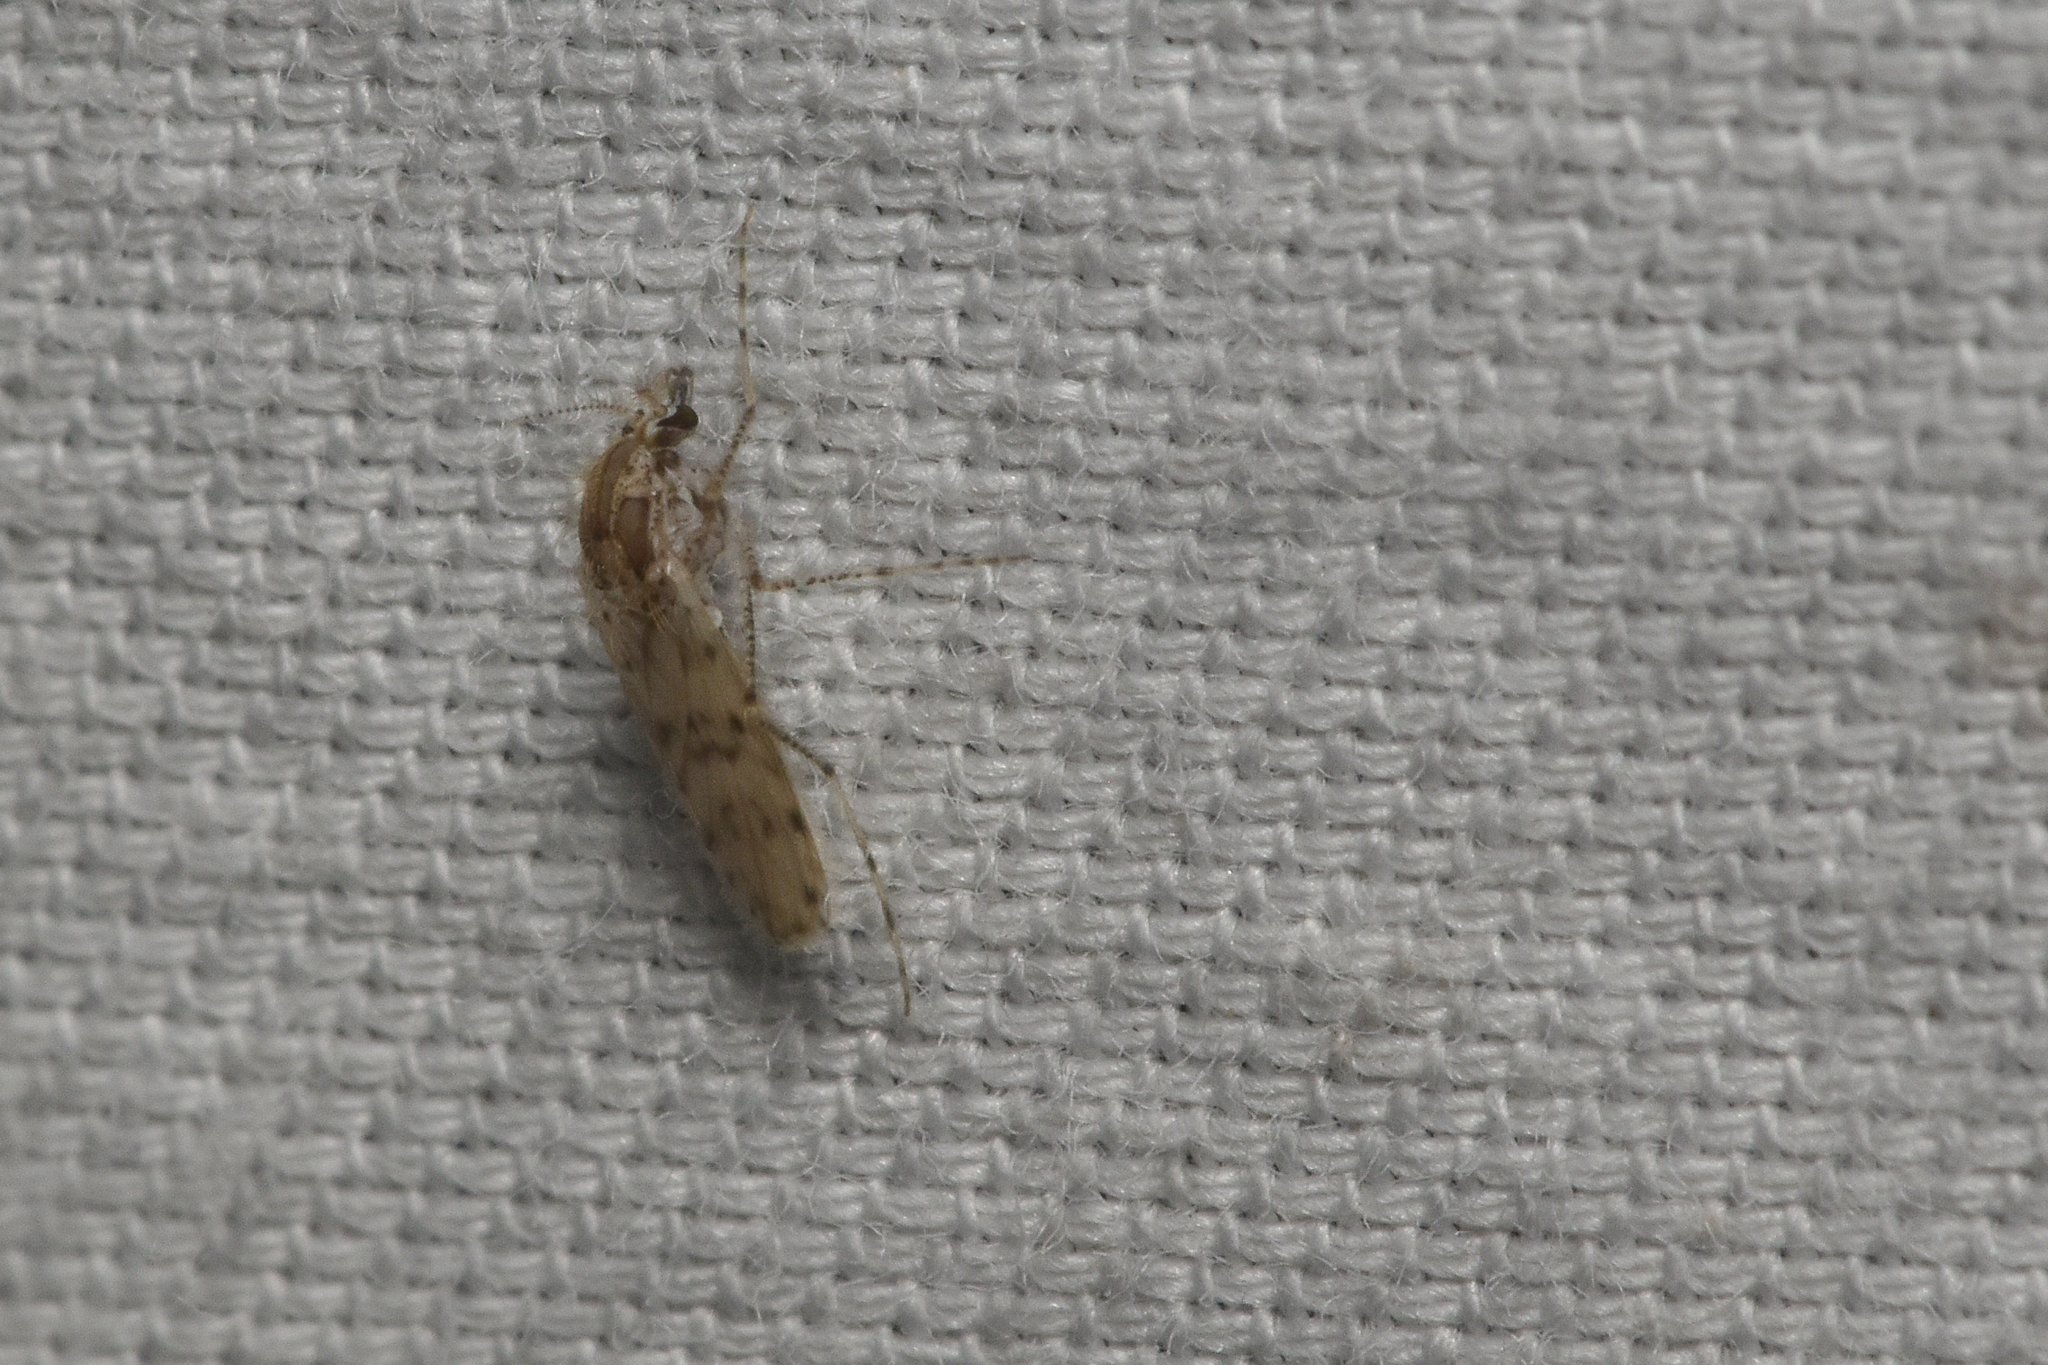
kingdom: Animalia
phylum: Arthropoda
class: Insecta
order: Diptera
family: Chaoboridae
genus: Chaoborus
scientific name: Chaoborus punctipennis
